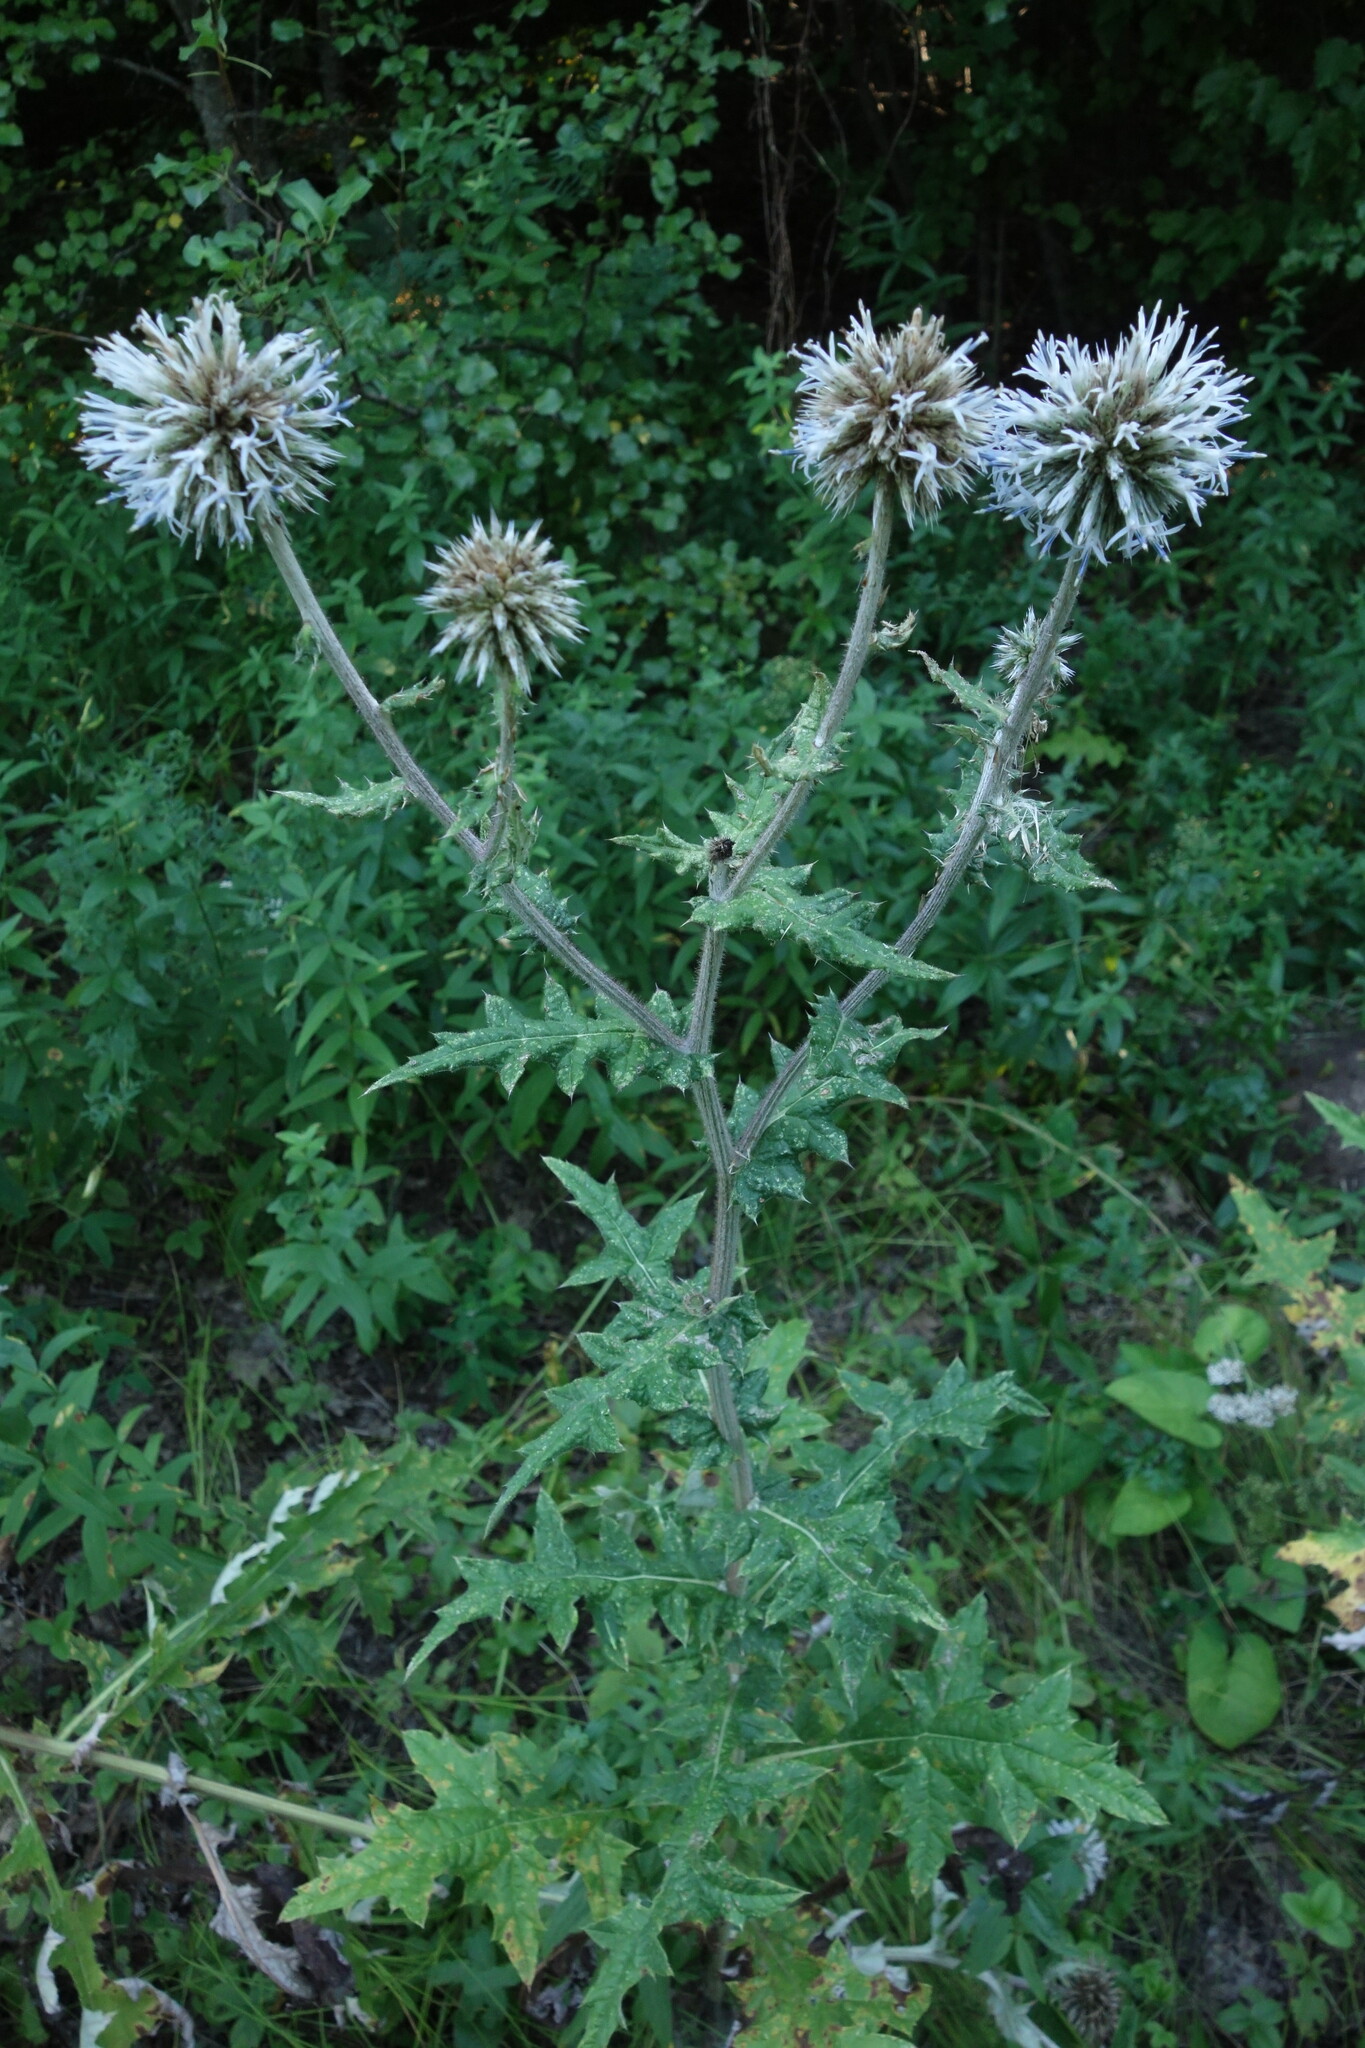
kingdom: Plantae
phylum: Tracheophyta
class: Magnoliopsida
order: Asterales
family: Asteraceae
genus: Echinops
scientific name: Echinops sphaerocephalus
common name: Glandular globe-thistle
